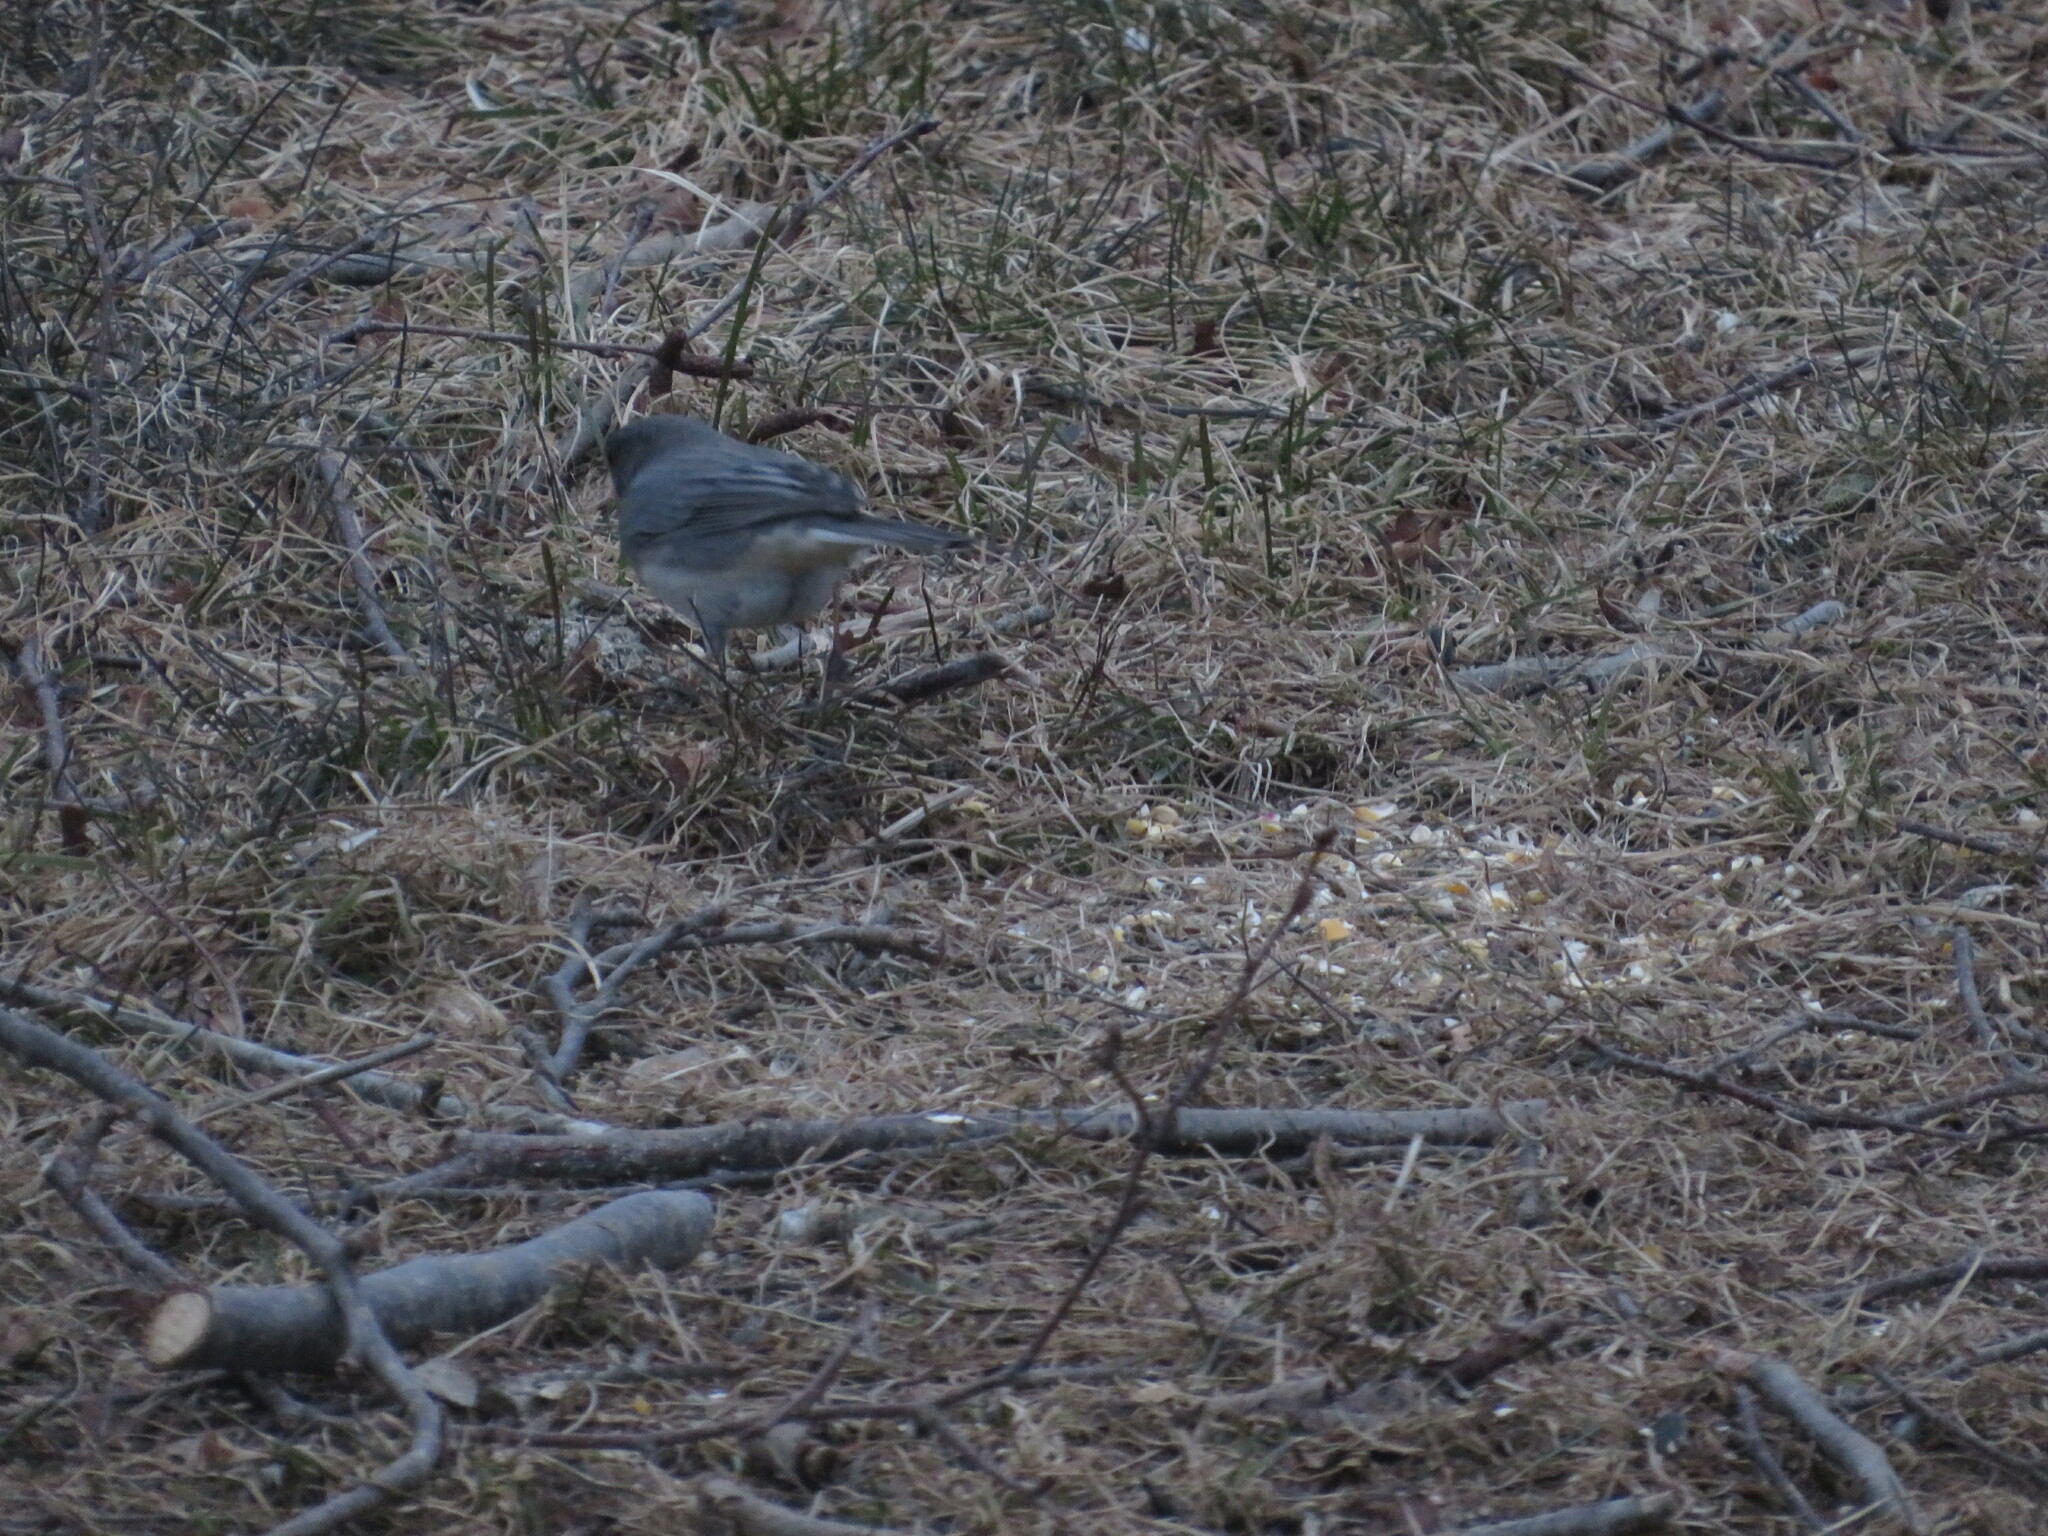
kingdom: Animalia
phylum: Chordata
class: Aves
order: Passeriformes
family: Passerellidae
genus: Junco
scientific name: Junco hyemalis
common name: Dark-eyed junco
